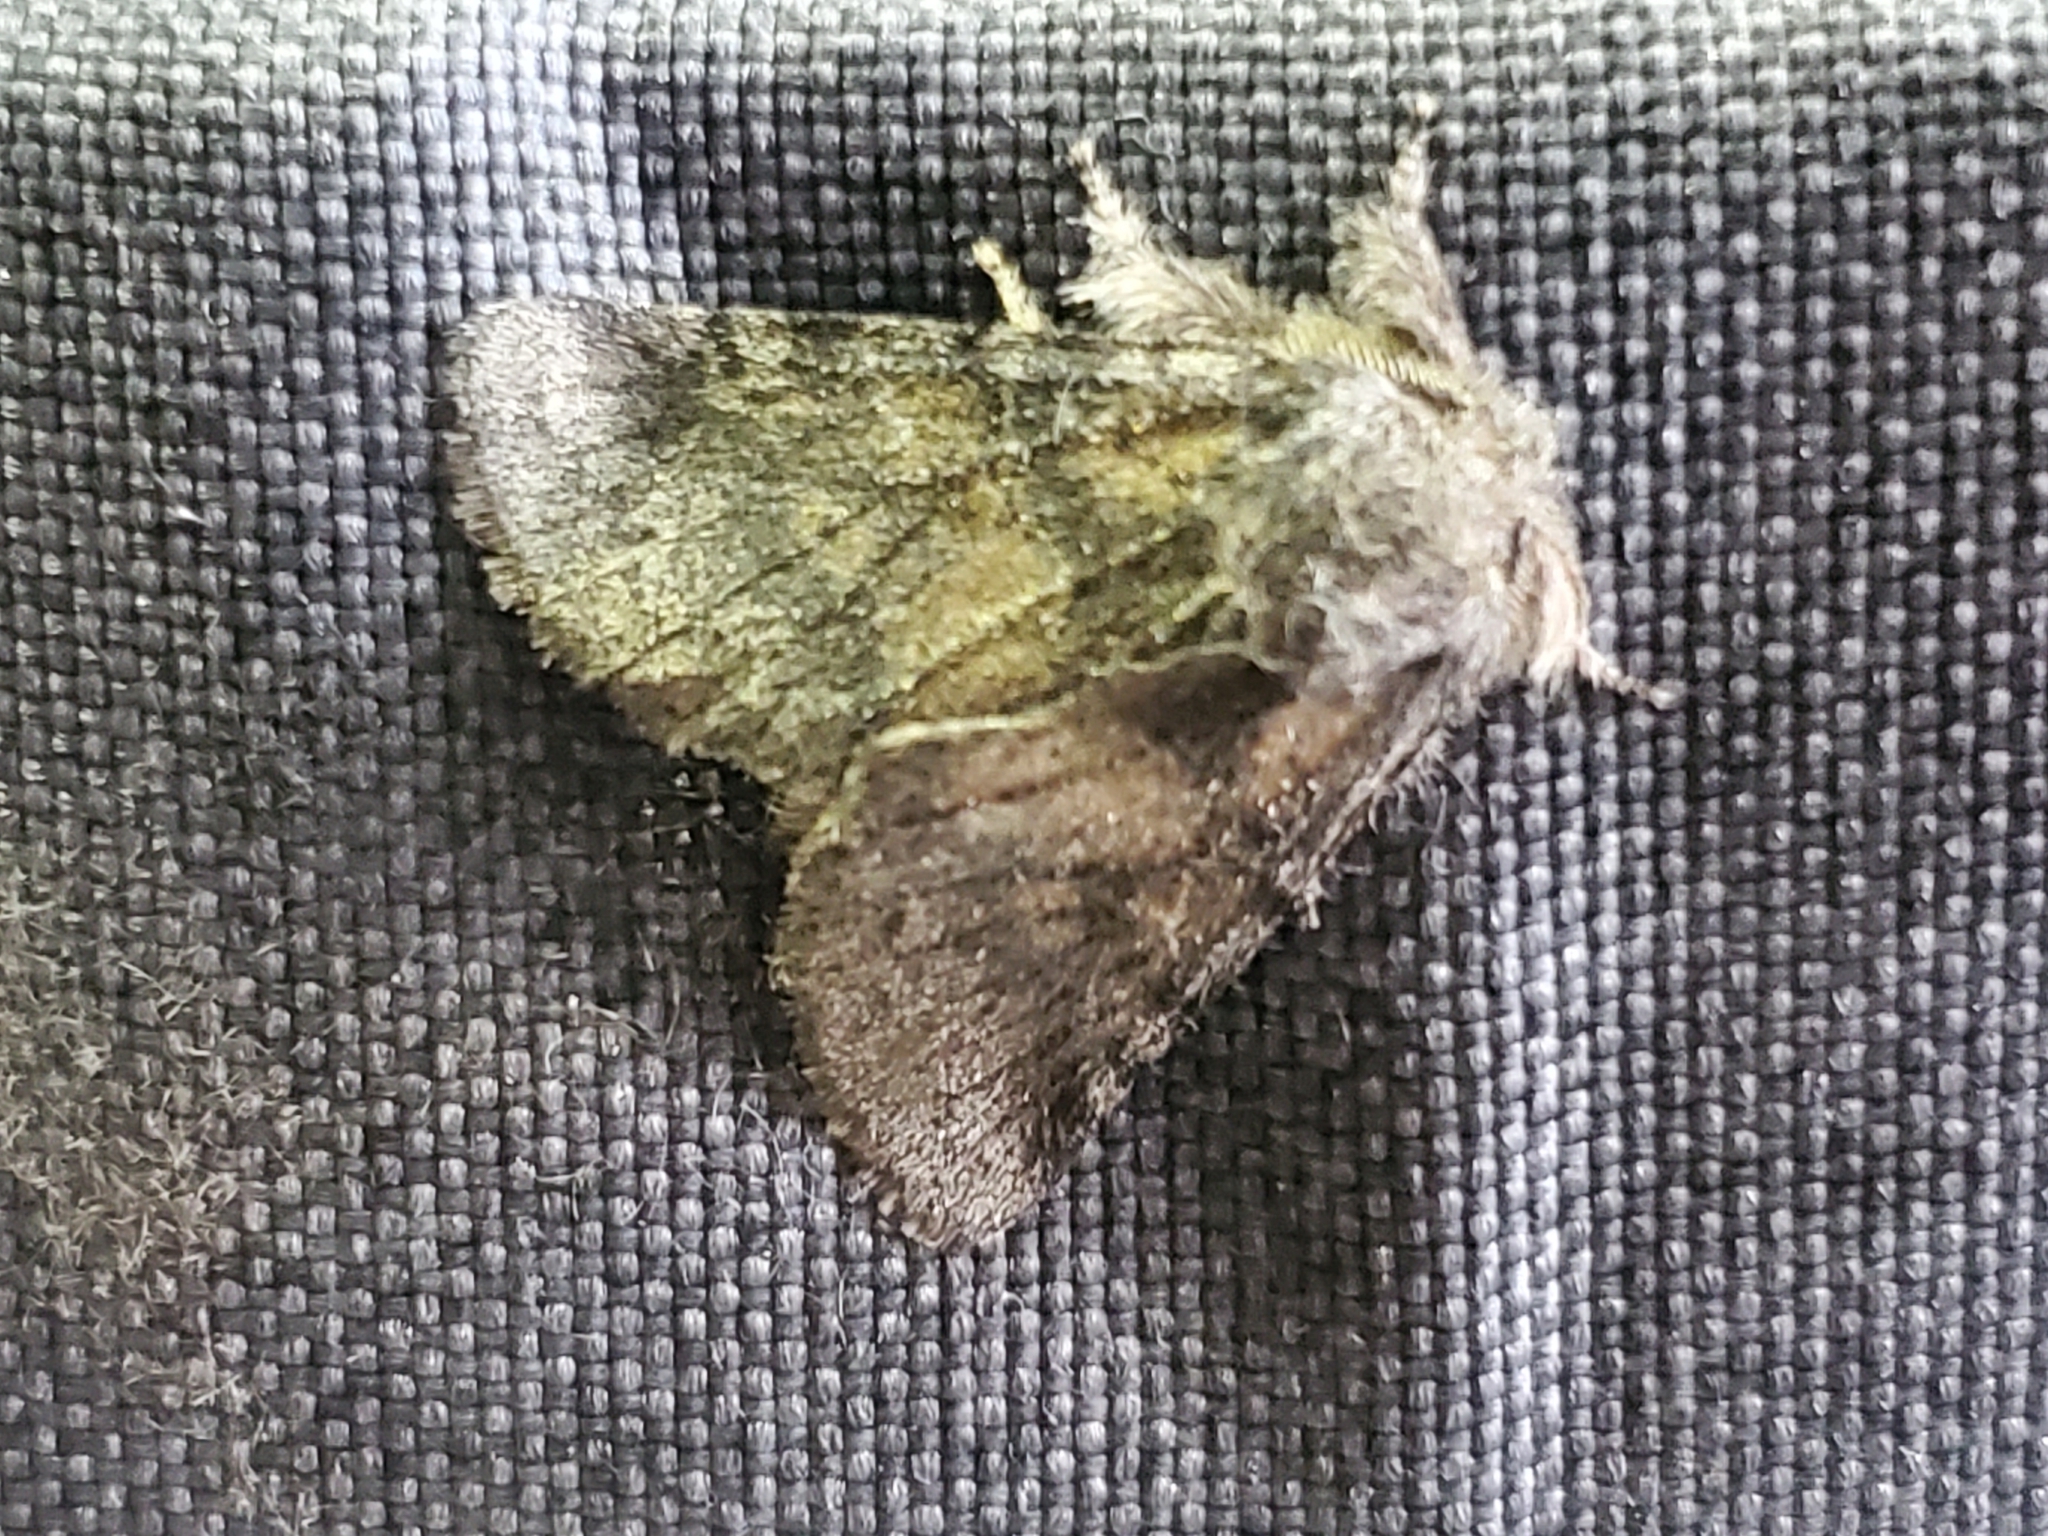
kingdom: Animalia
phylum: Arthropoda
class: Insecta
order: Lepidoptera
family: Notodontidae
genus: Gluphisia
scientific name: Gluphisia septentrionis
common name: Common gluphisia
